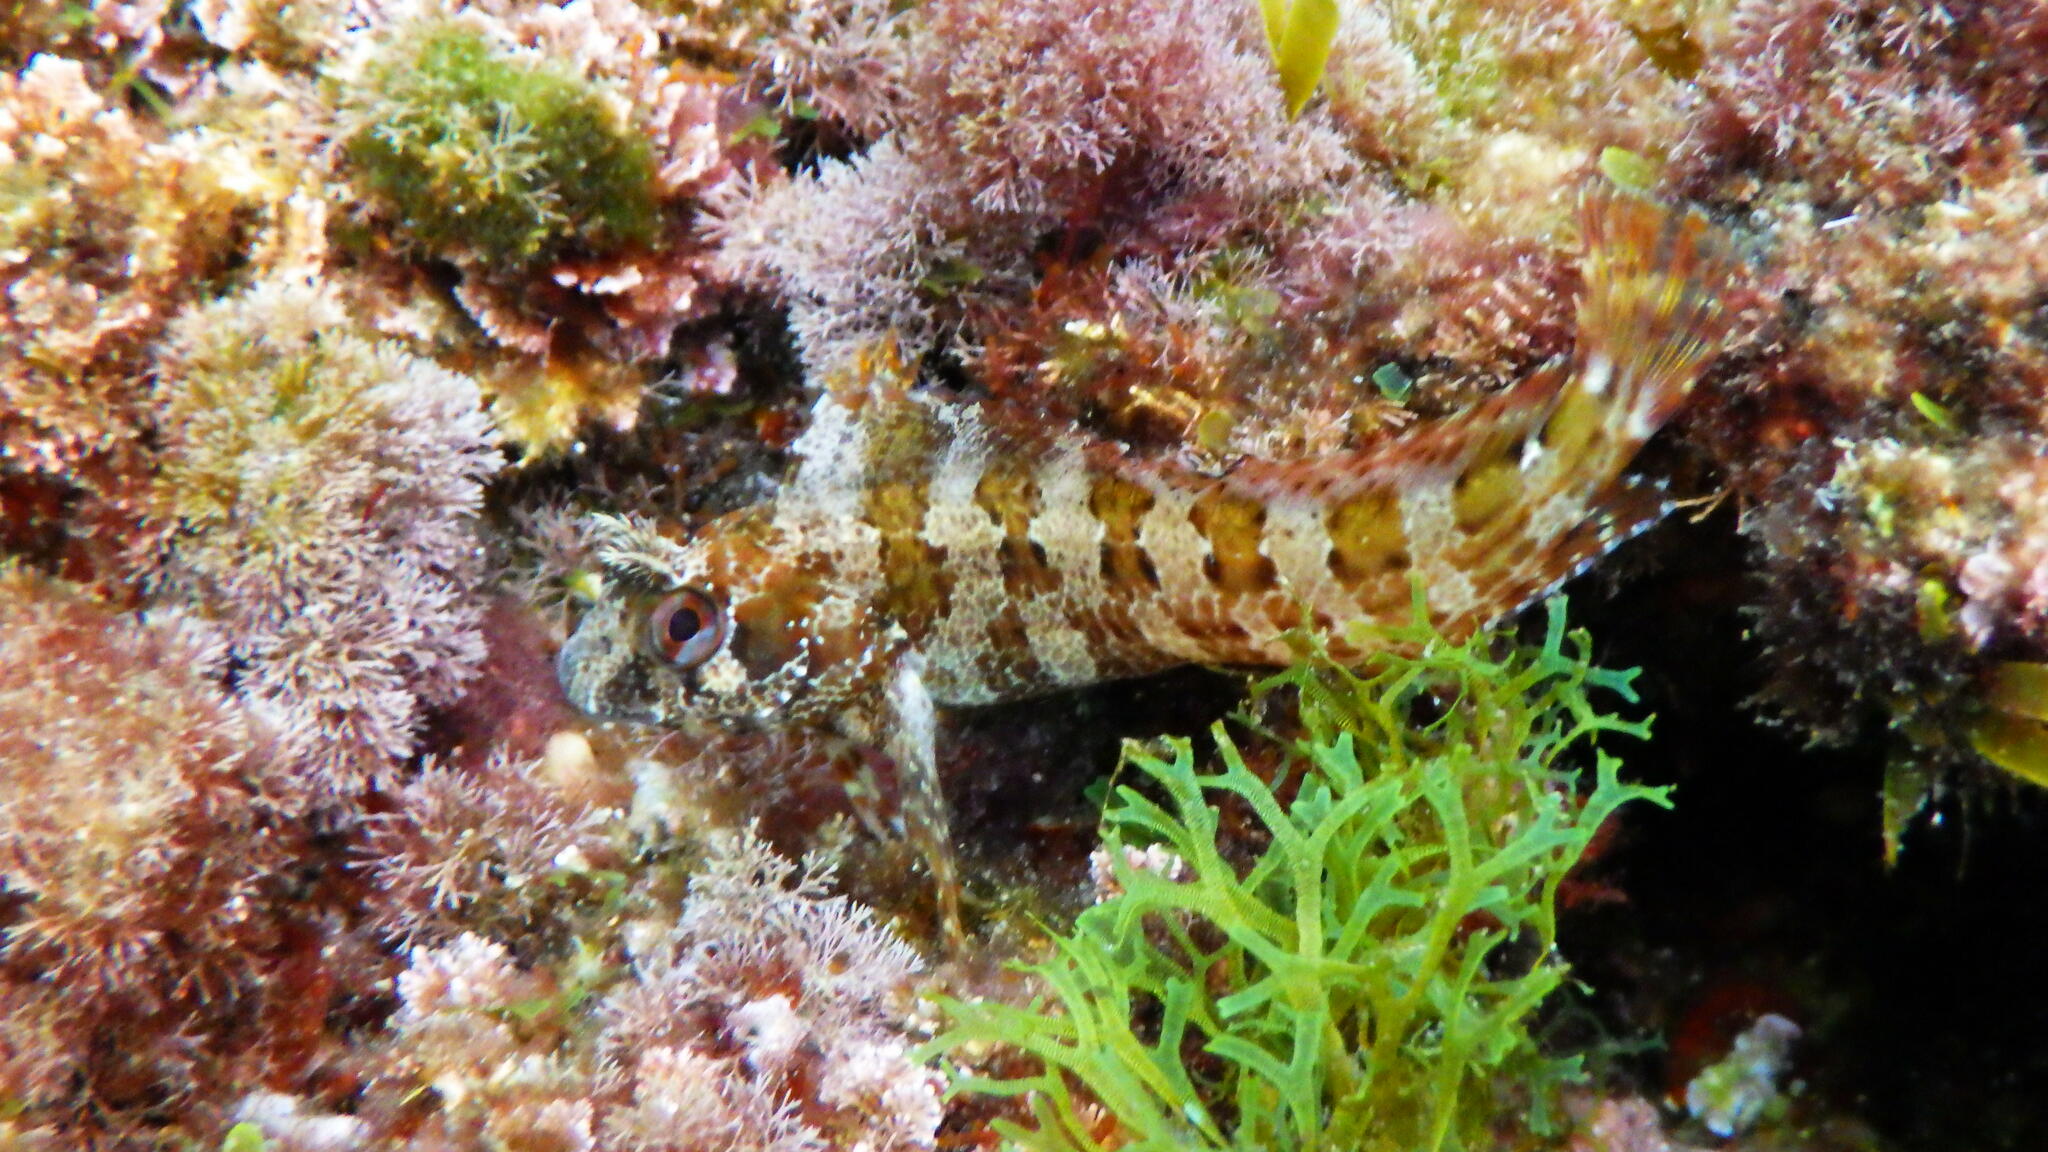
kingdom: Animalia
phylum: Chordata
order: Perciformes
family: Blenniidae
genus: Parablennius
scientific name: Parablennius gattorugine
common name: Tompot blenny
